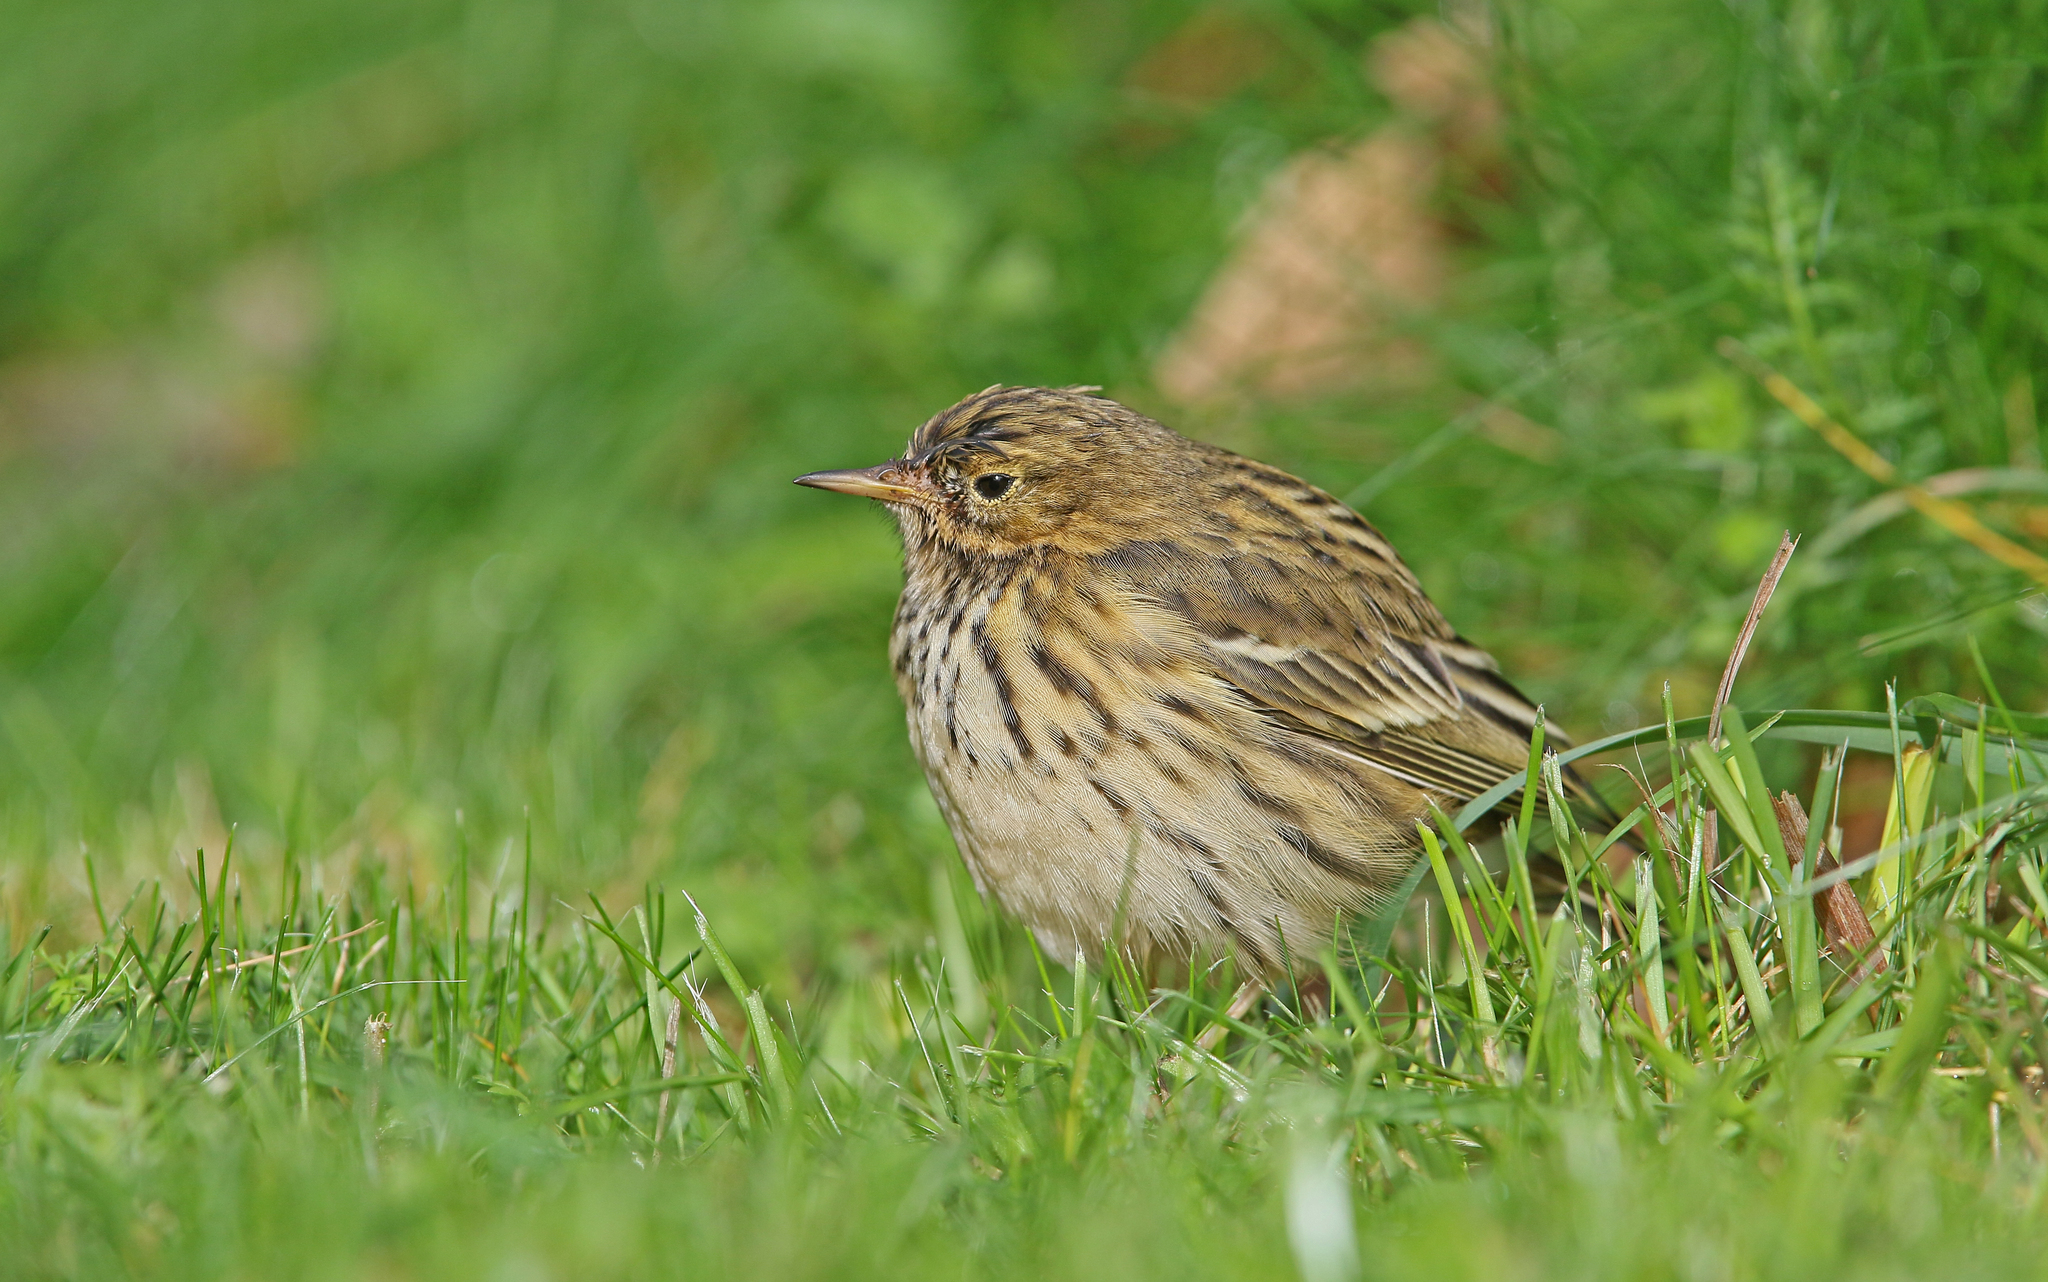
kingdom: Animalia
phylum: Chordata
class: Aves
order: Passeriformes
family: Motacillidae
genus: Anthus
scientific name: Anthus pratensis
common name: Meadow pipit
